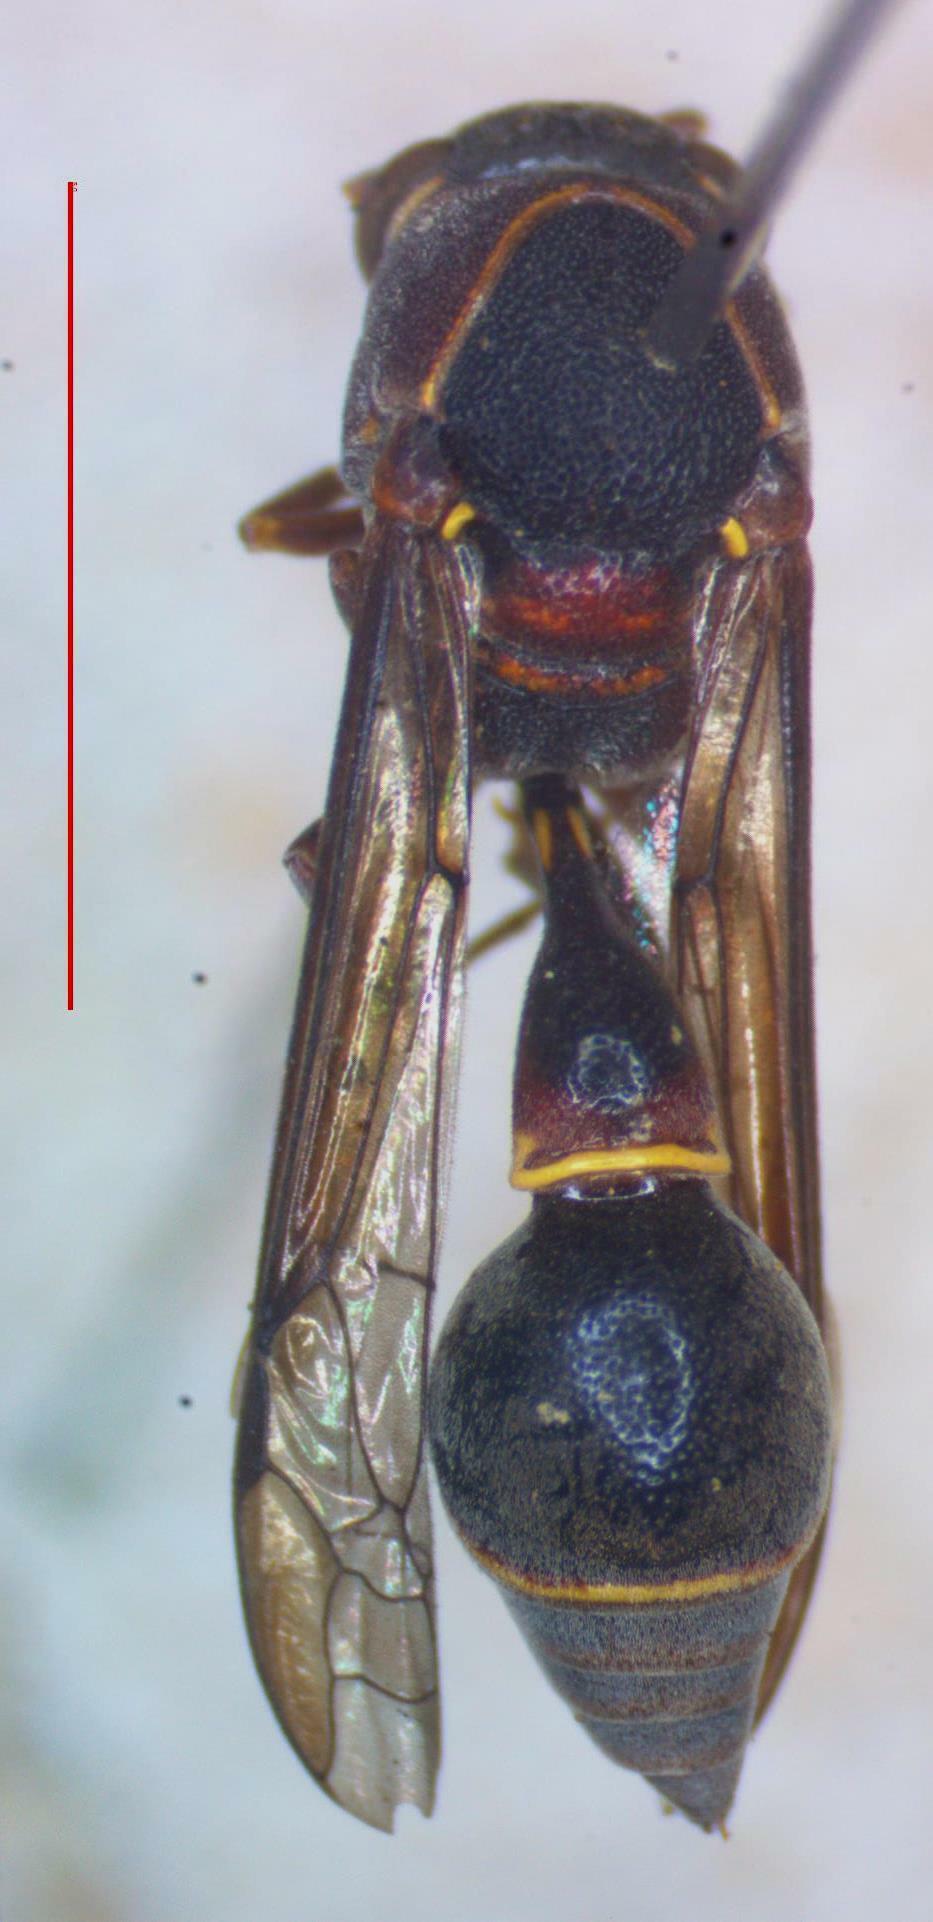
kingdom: Animalia
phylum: Arthropoda
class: Insecta
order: Hymenoptera
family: Eumenidae
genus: Cyphomenes
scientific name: Cyphomenes anisitsii
